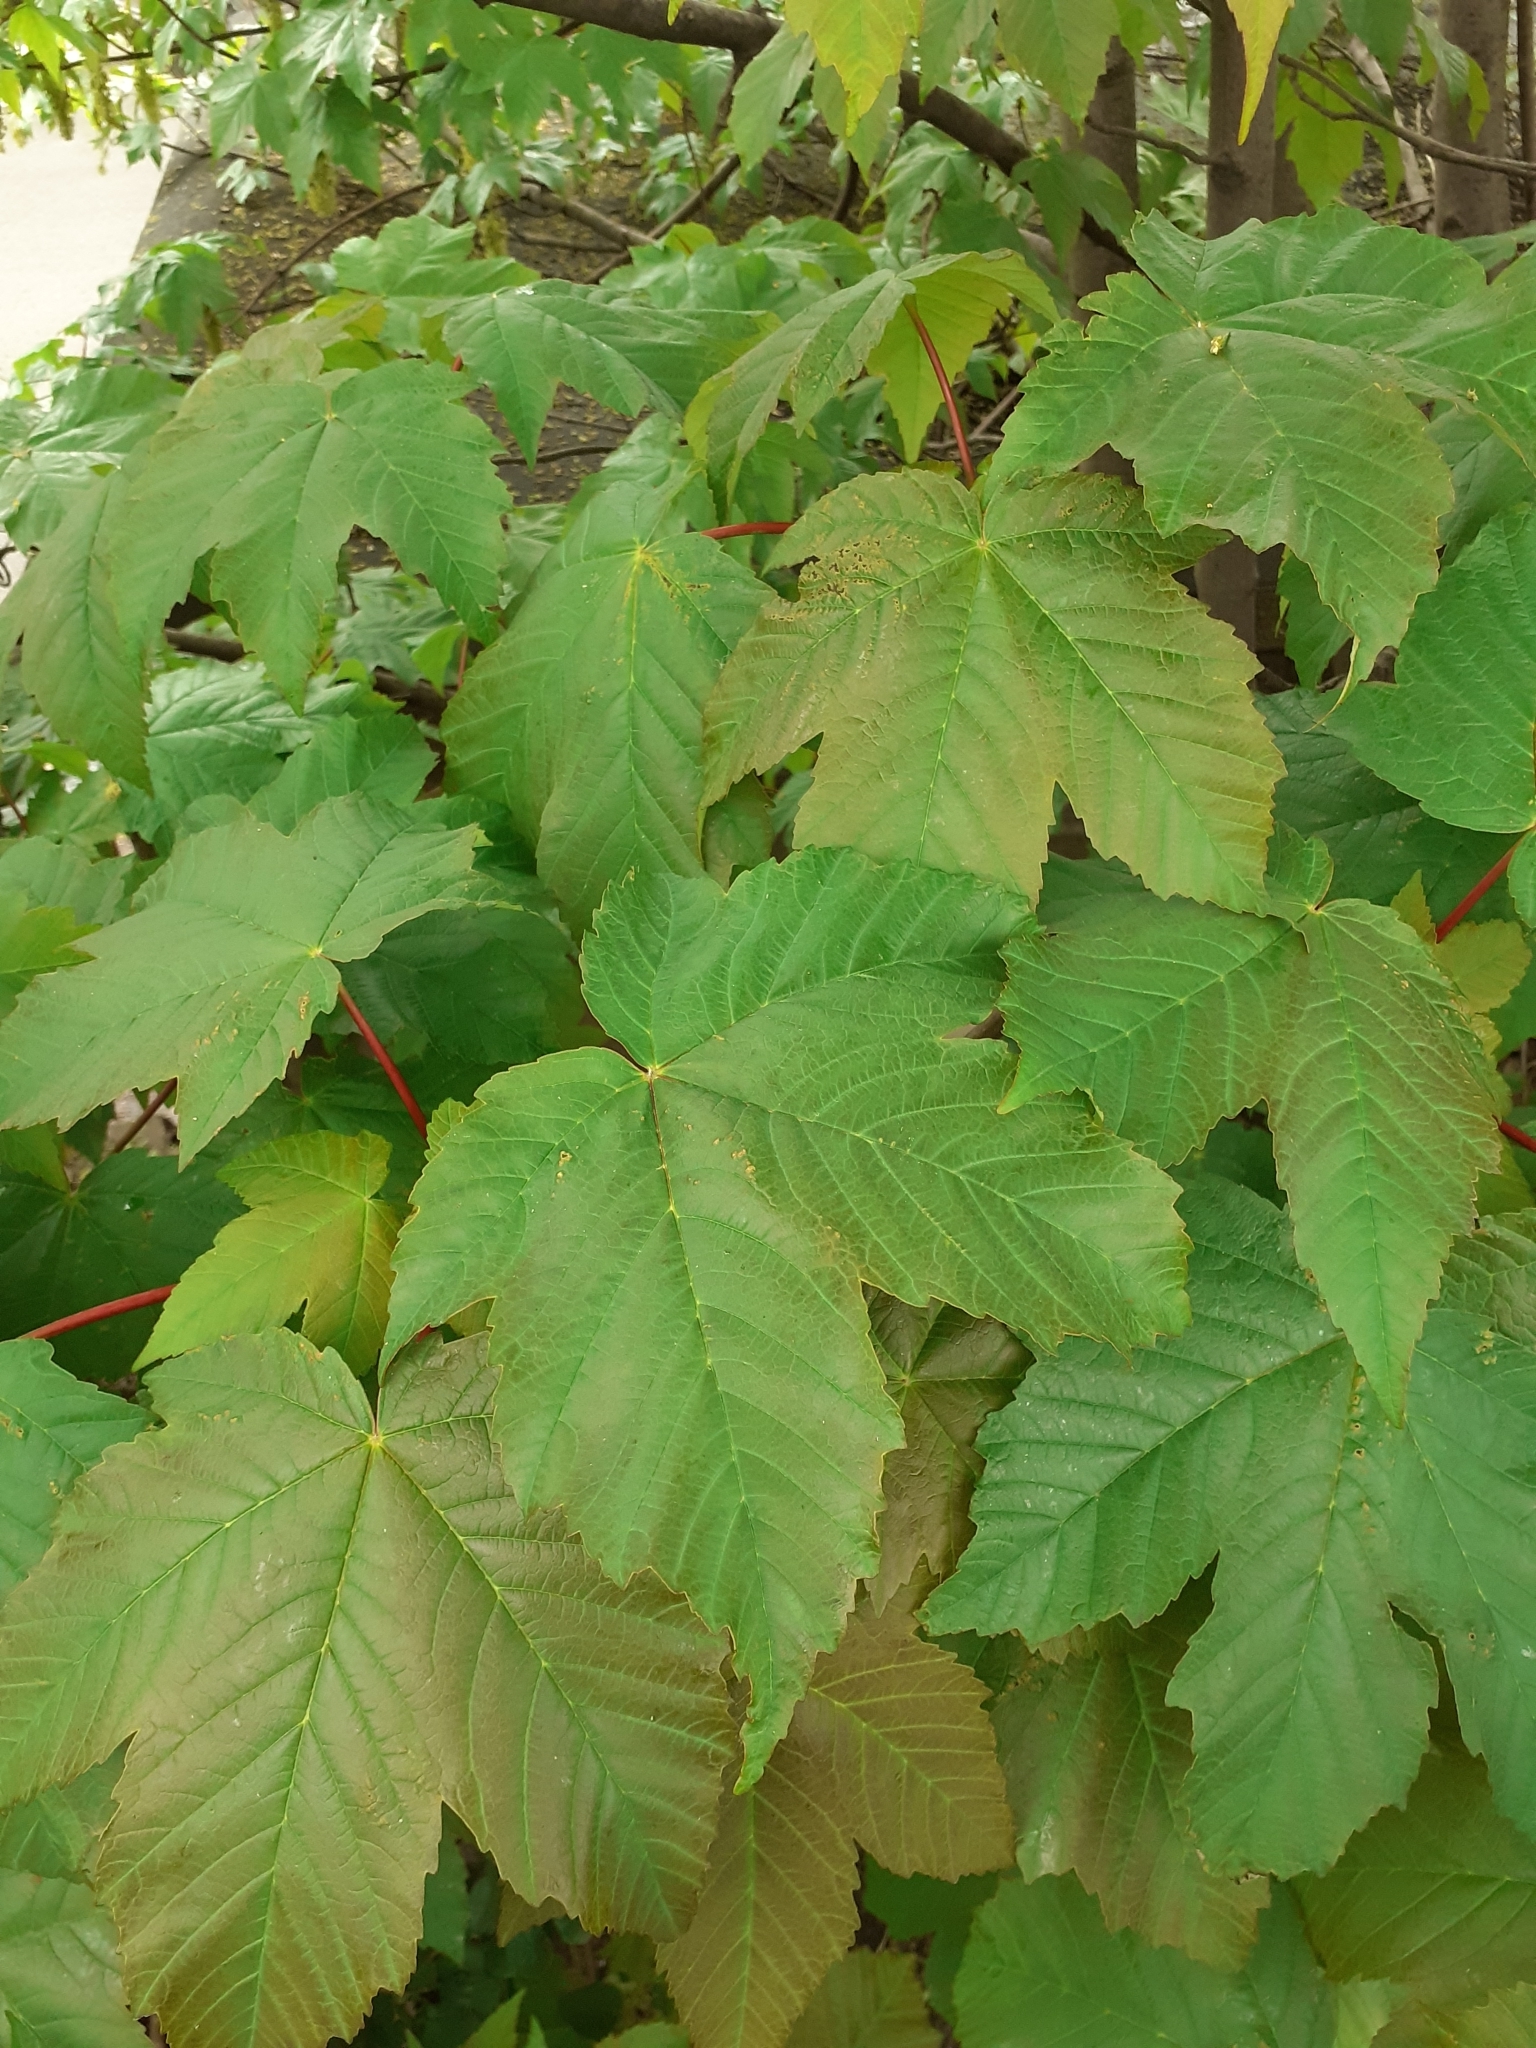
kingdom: Plantae
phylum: Tracheophyta
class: Magnoliopsida
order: Sapindales
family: Sapindaceae
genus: Acer
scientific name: Acer pseudoplatanus
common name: Sycamore
